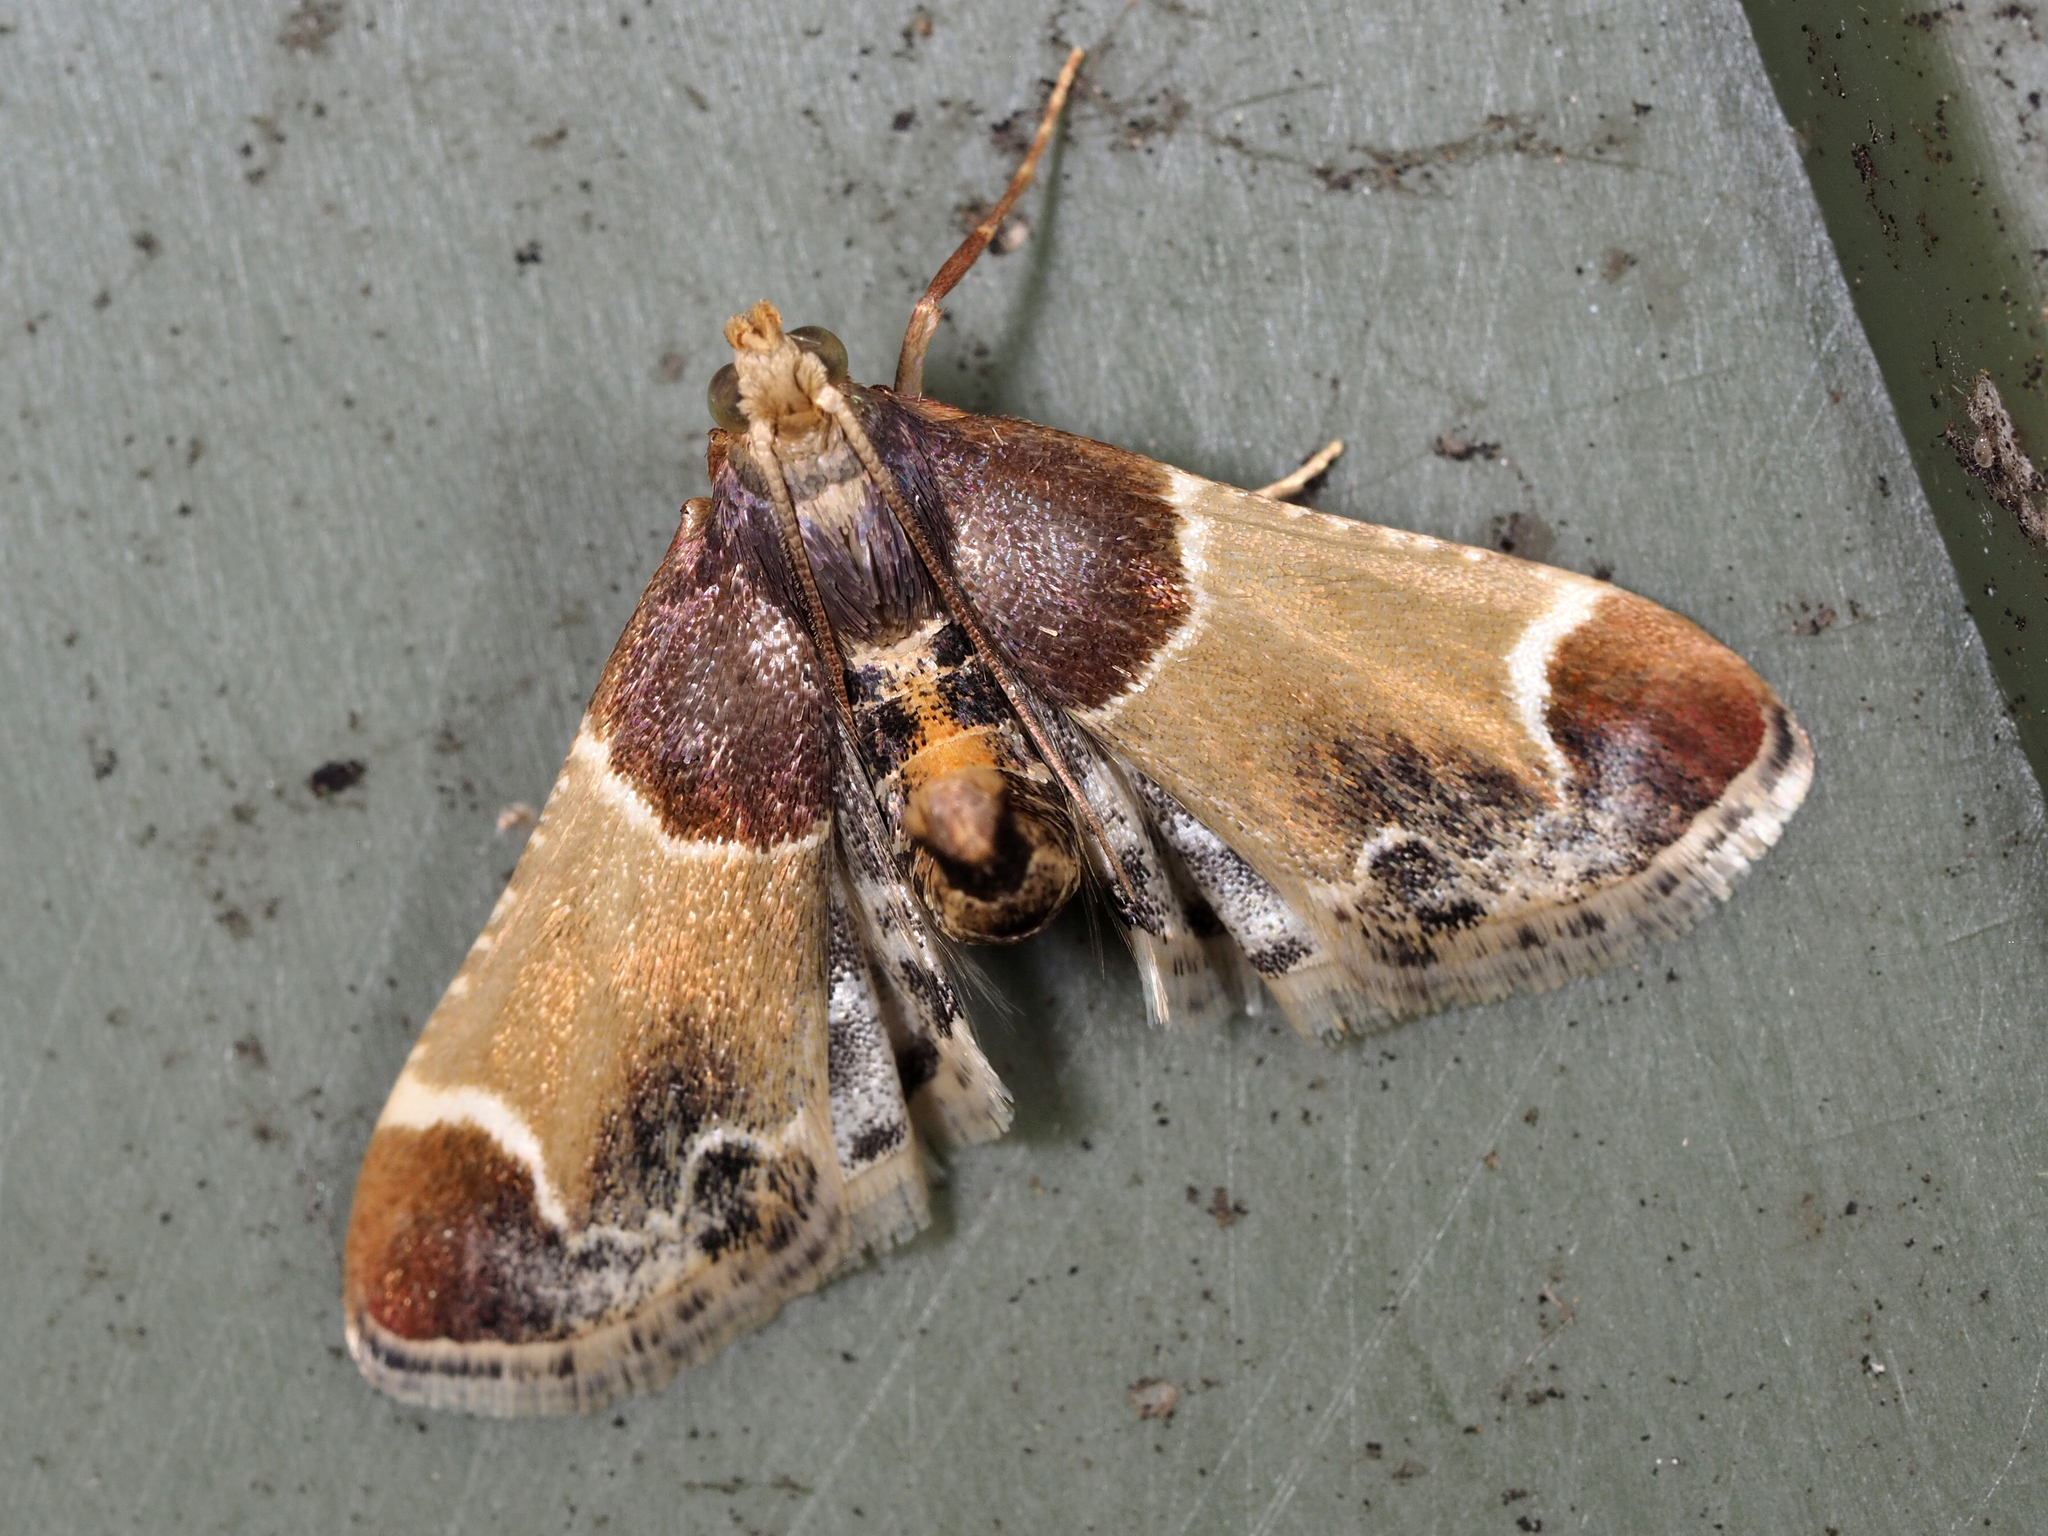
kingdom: Animalia
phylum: Arthropoda
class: Insecta
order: Lepidoptera
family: Pyralidae
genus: Pyralis
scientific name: Pyralis farinalis
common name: Meal moth
